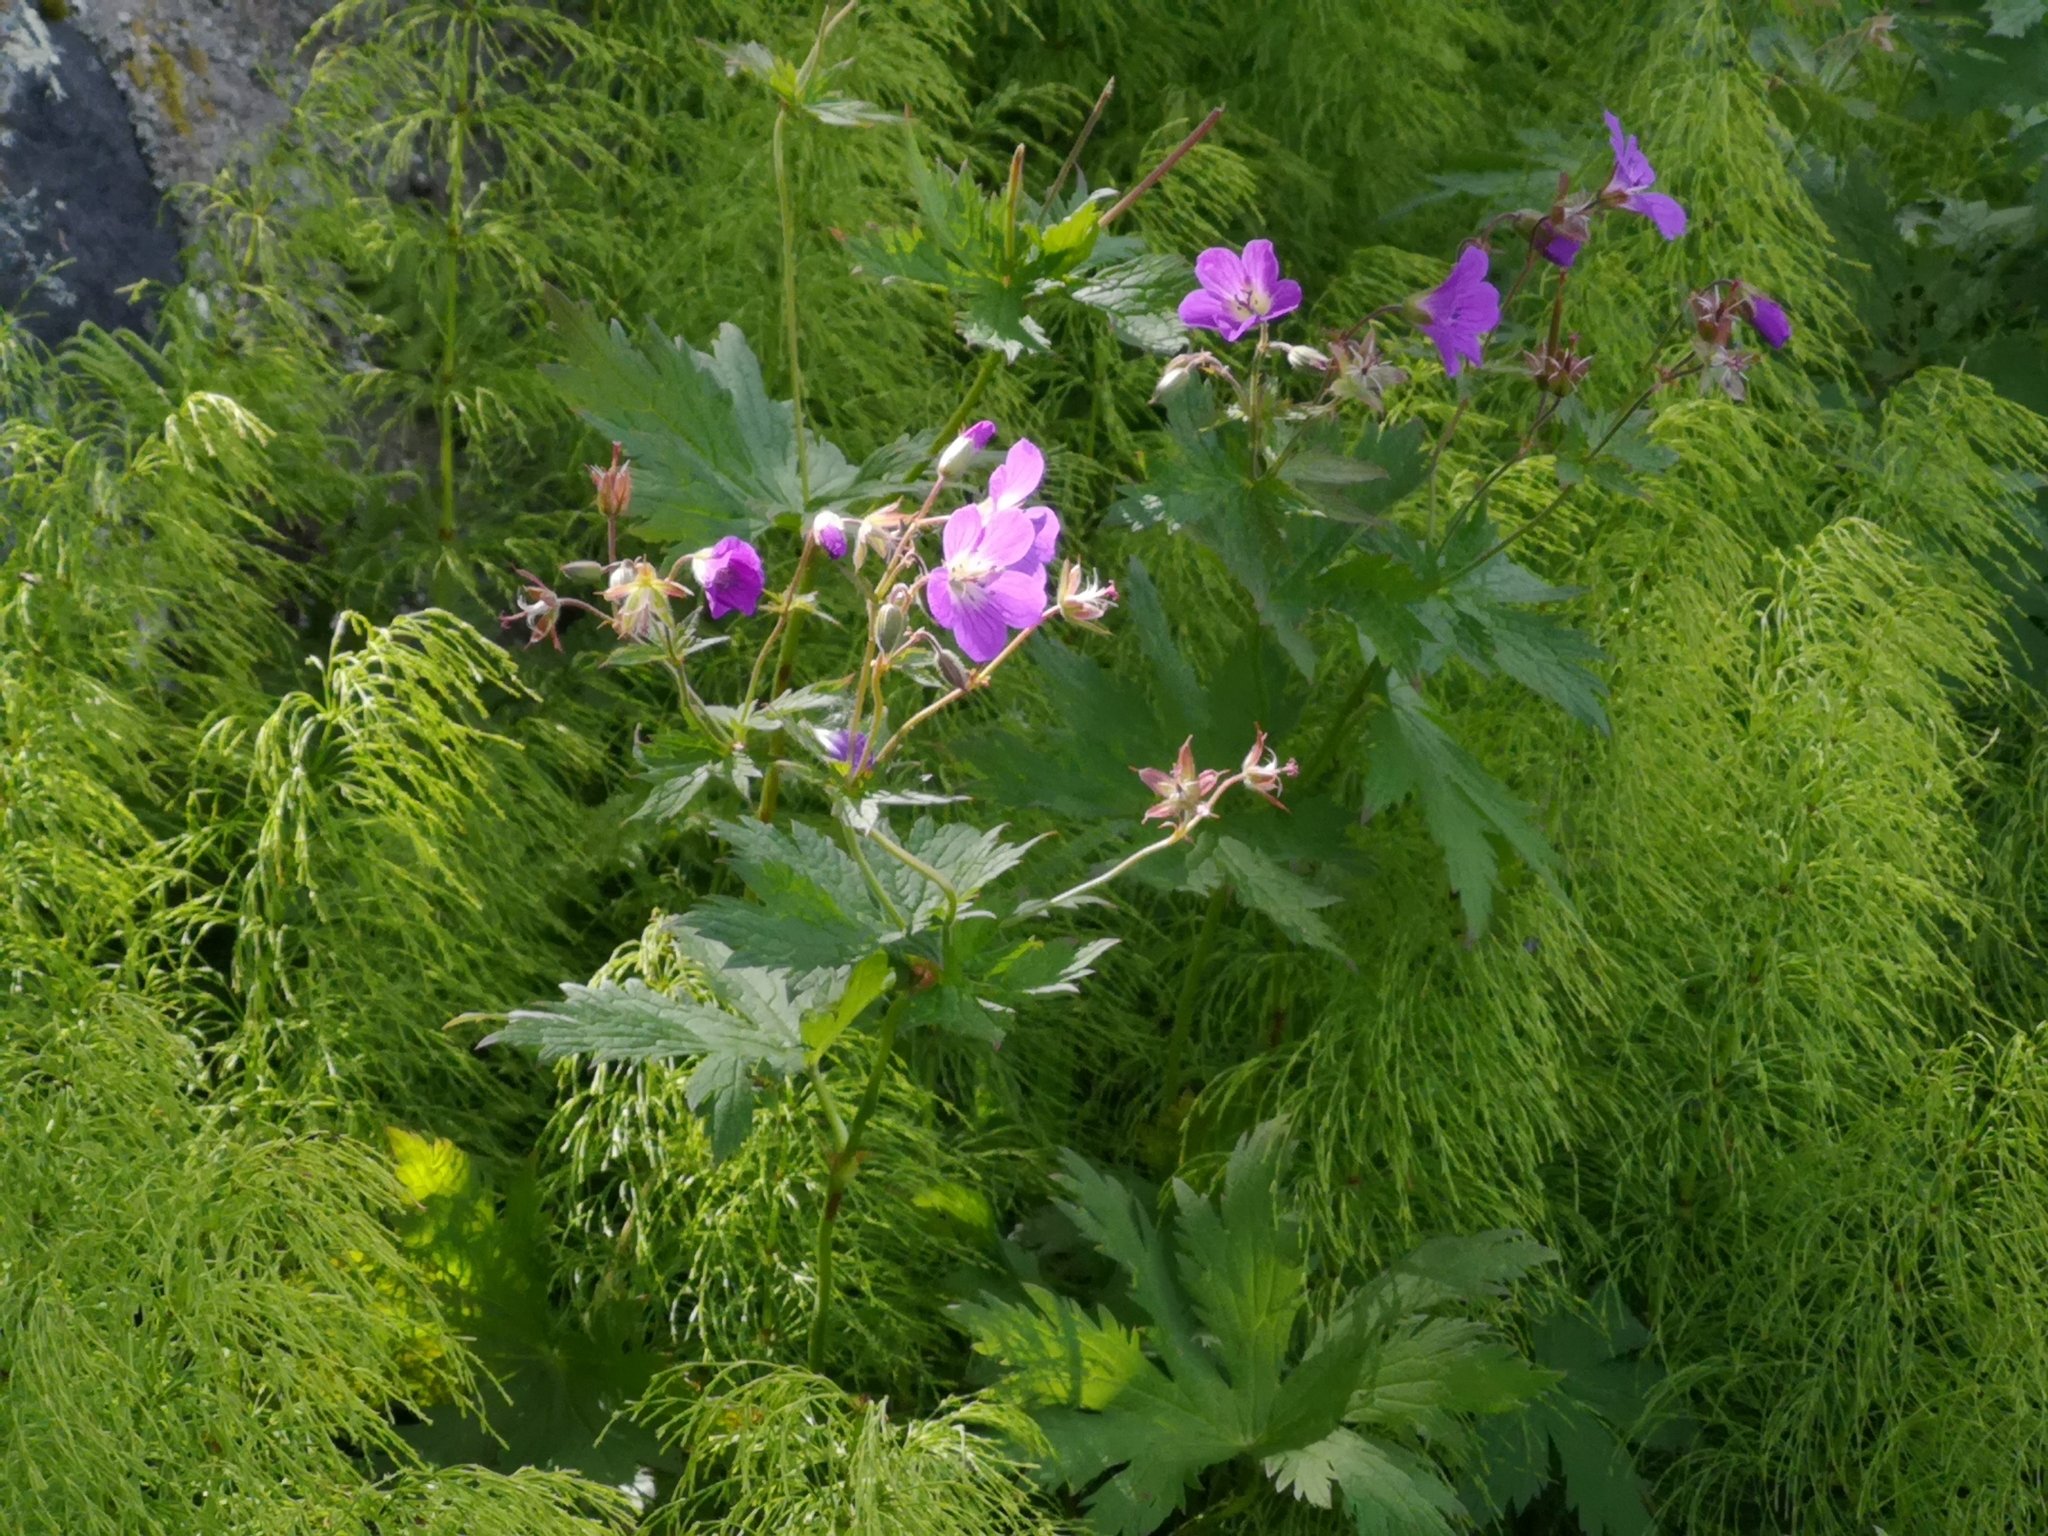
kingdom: Plantae
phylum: Tracheophyta
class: Magnoliopsida
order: Geraniales
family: Geraniaceae
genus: Geranium
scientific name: Geranium sylvaticum
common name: Wood crane's-bill
